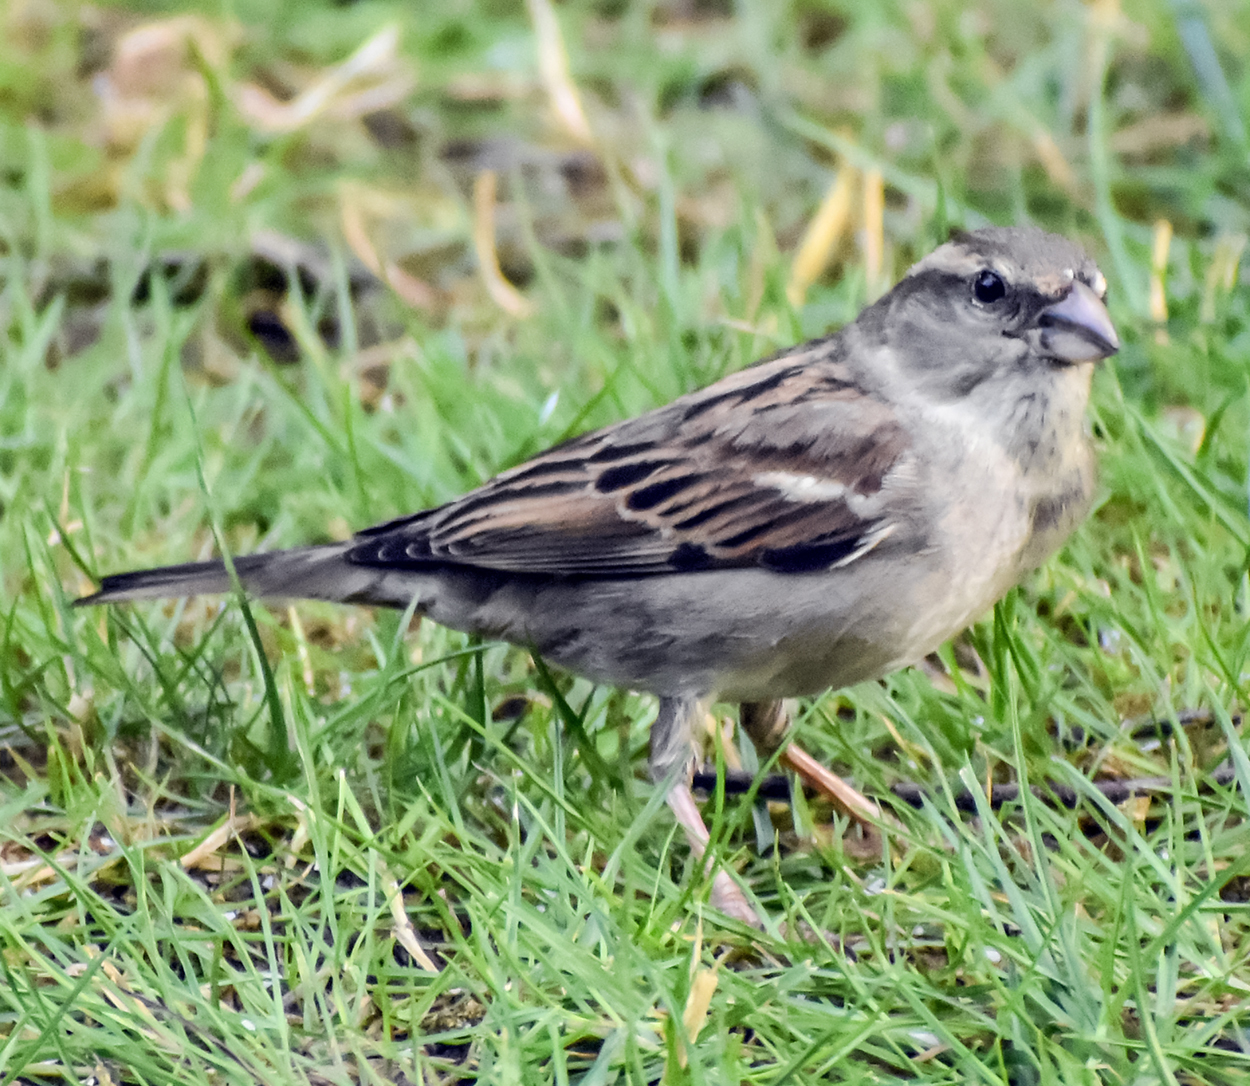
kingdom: Animalia
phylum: Chordata
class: Aves
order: Passeriformes
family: Passeridae
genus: Passer
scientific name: Passer italiae
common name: Italian sparrow
